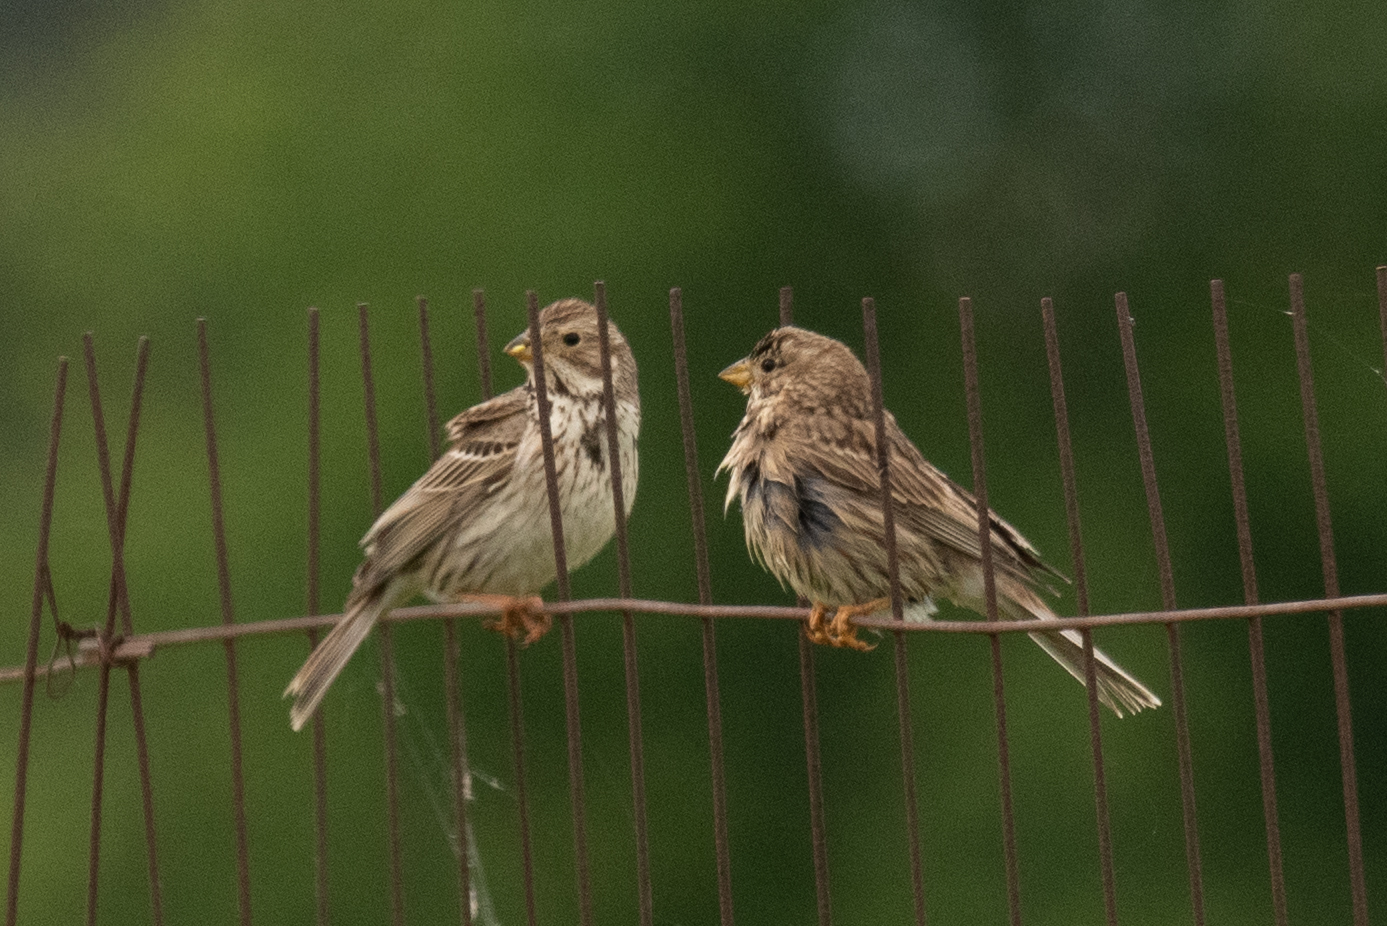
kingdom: Animalia
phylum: Chordata
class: Aves
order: Passeriformes
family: Emberizidae
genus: Emberiza
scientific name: Emberiza calandra
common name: Corn bunting
